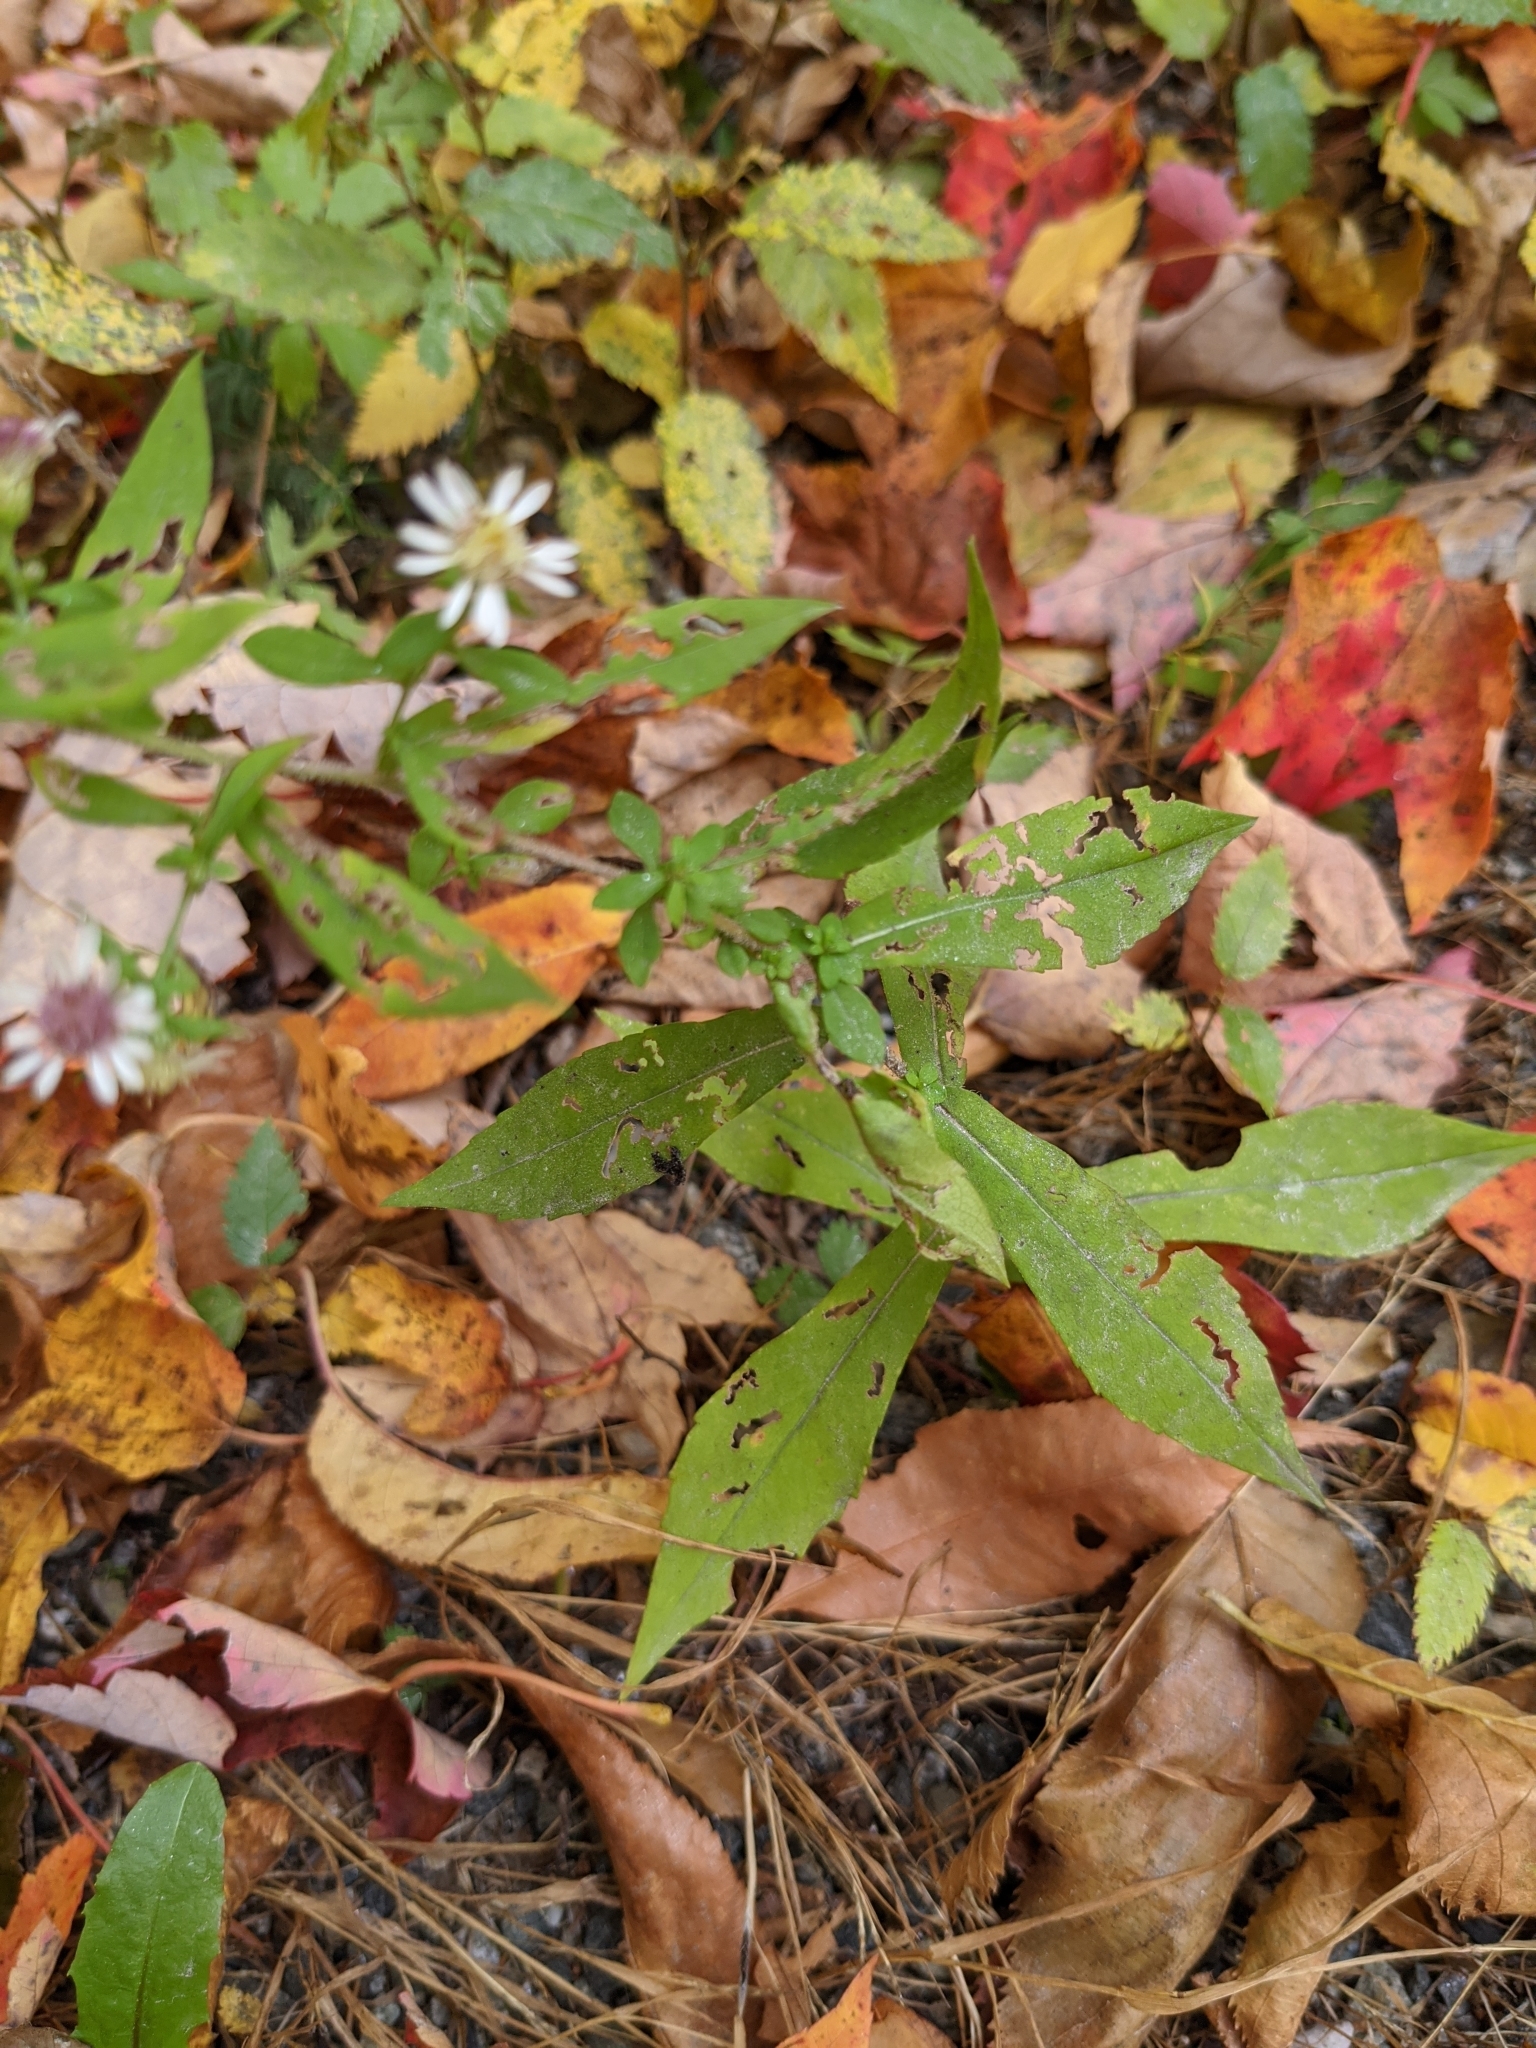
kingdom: Plantae
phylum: Tracheophyta
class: Magnoliopsida
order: Asterales
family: Asteraceae
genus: Symphyotrichum
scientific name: Symphyotrichum lateriflorum
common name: Calico aster
